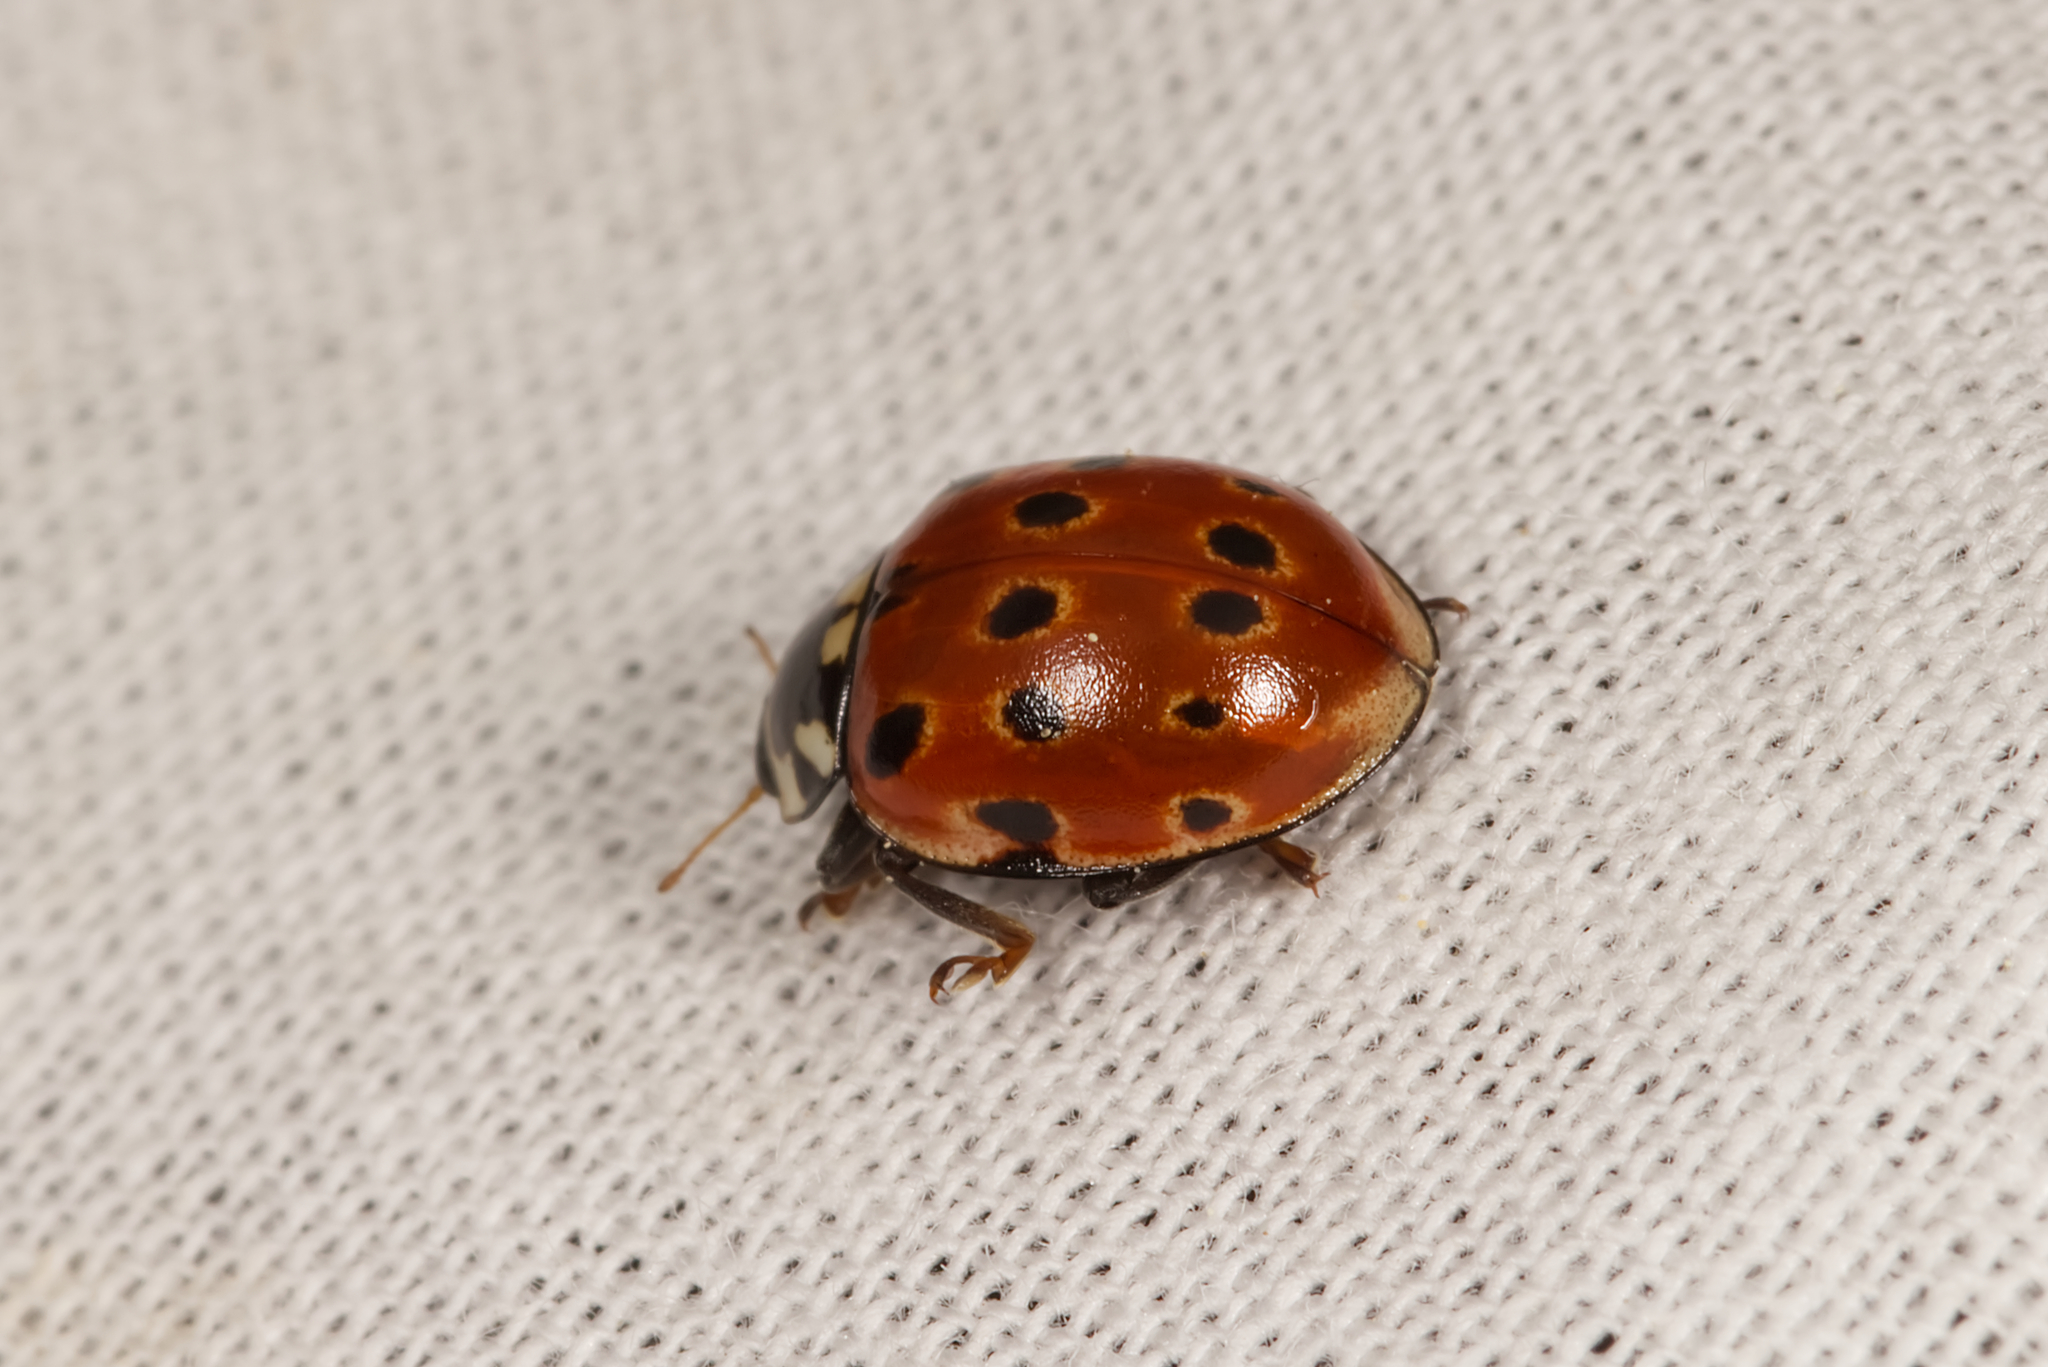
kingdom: Animalia
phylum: Arthropoda
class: Insecta
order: Coleoptera
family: Coccinellidae
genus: Anatis
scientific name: Anatis ocellata
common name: Eyed ladybird
